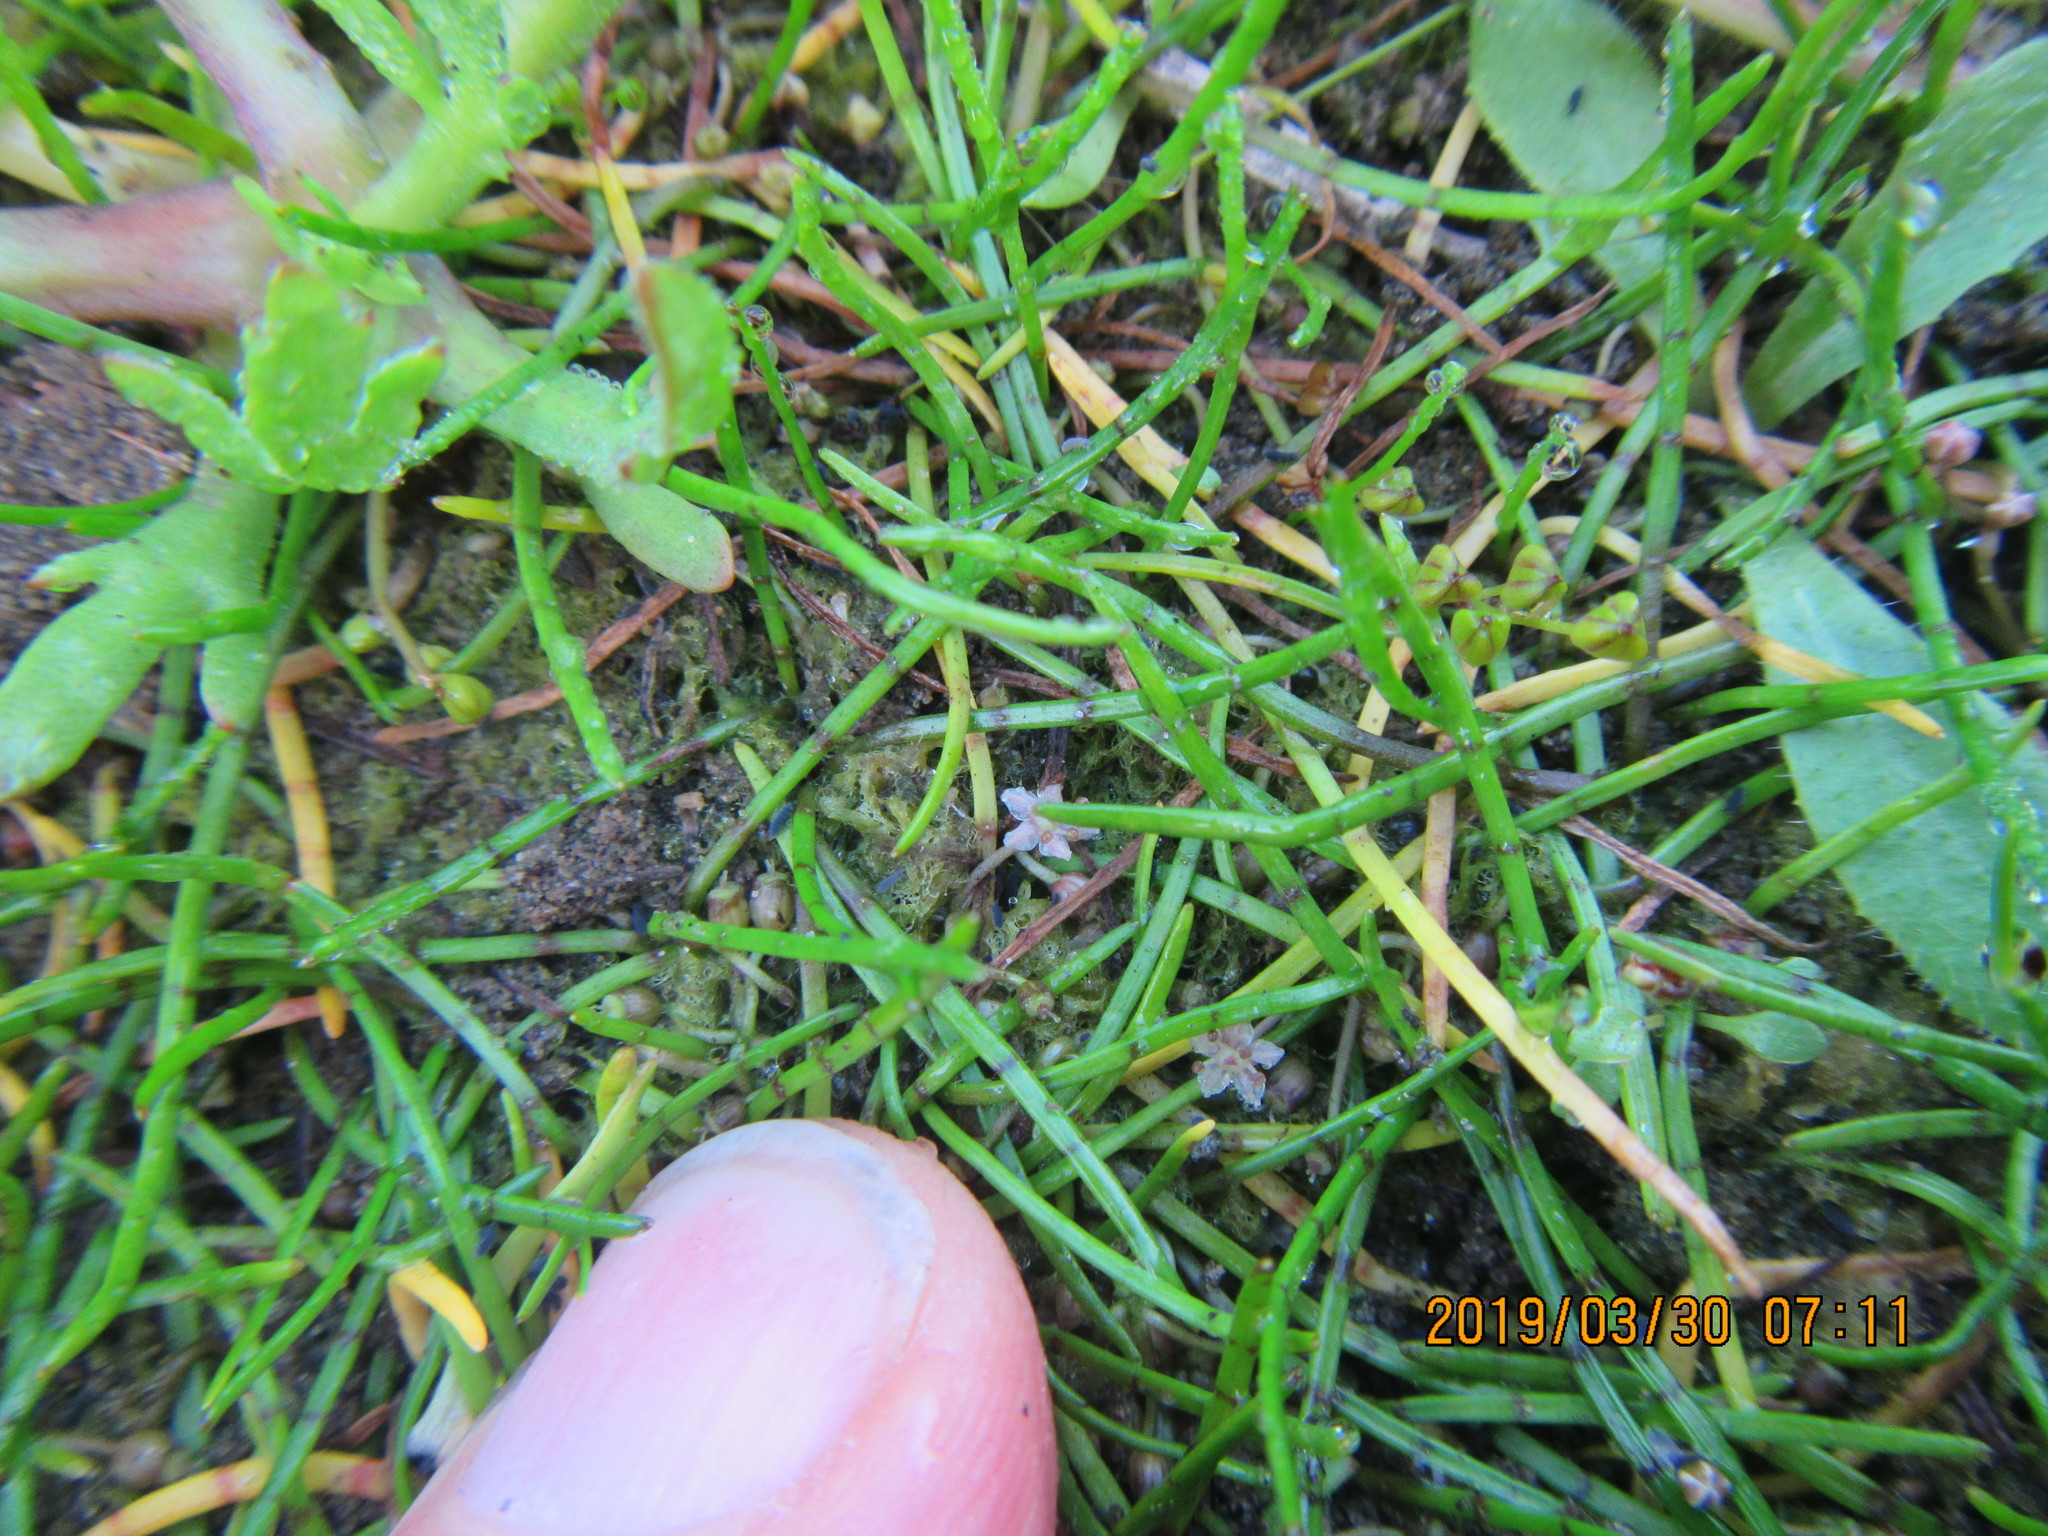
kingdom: Plantae
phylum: Tracheophyta
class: Magnoliopsida
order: Apiales
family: Apiaceae
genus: Lilaeopsis
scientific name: Lilaeopsis novae-zelandiae
